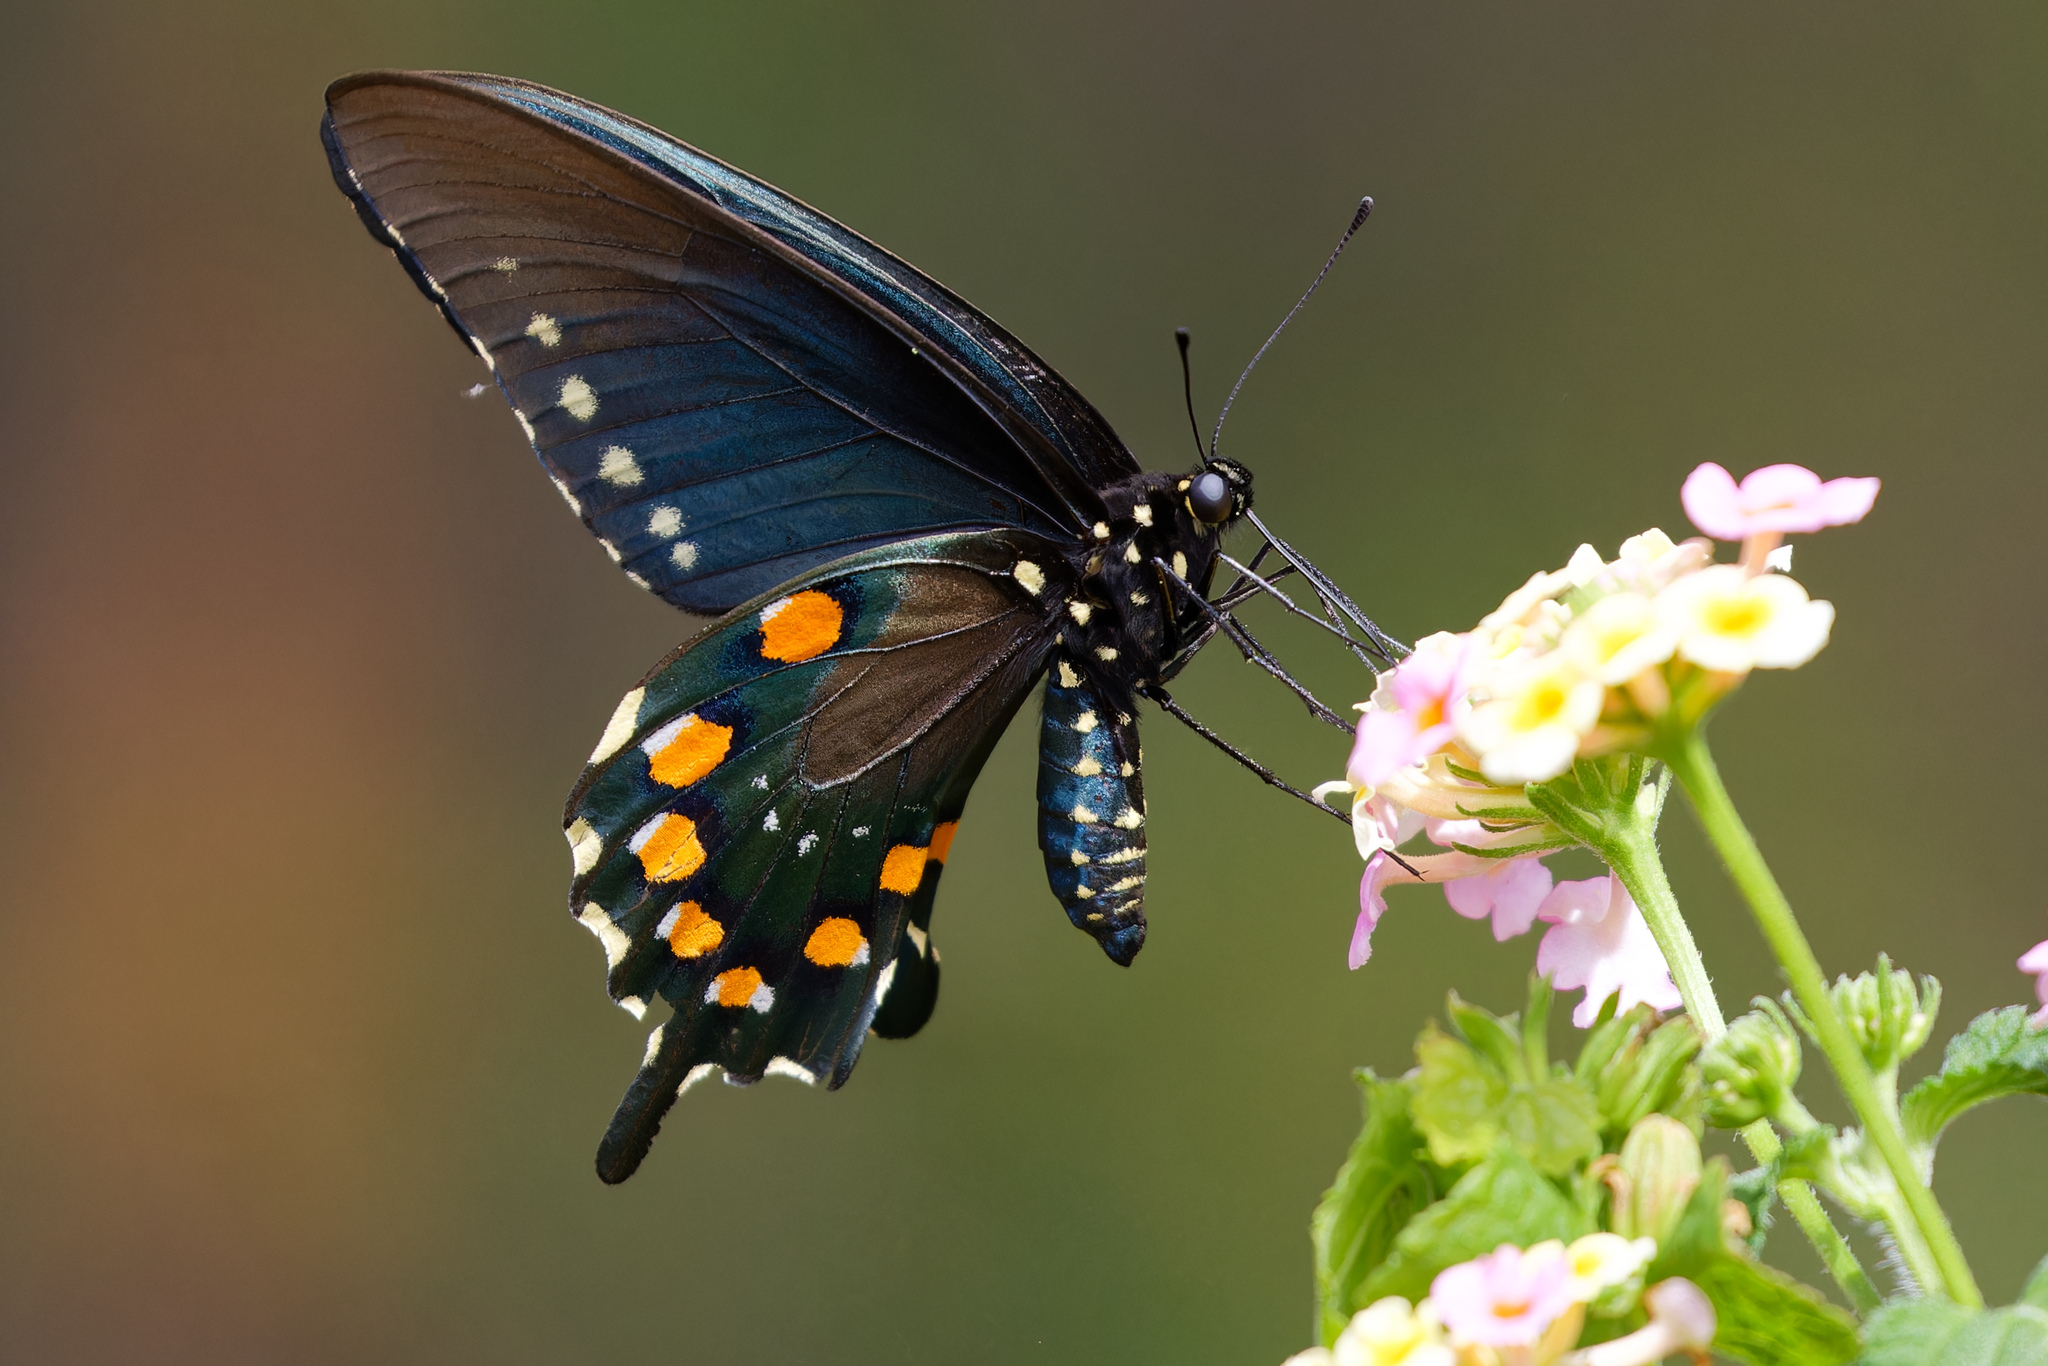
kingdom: Animalia
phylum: Arthropoda
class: Insecta
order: Lepidoptera
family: Papilionidae
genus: Battus
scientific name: Battus philenor
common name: Pipevine swallowtail
